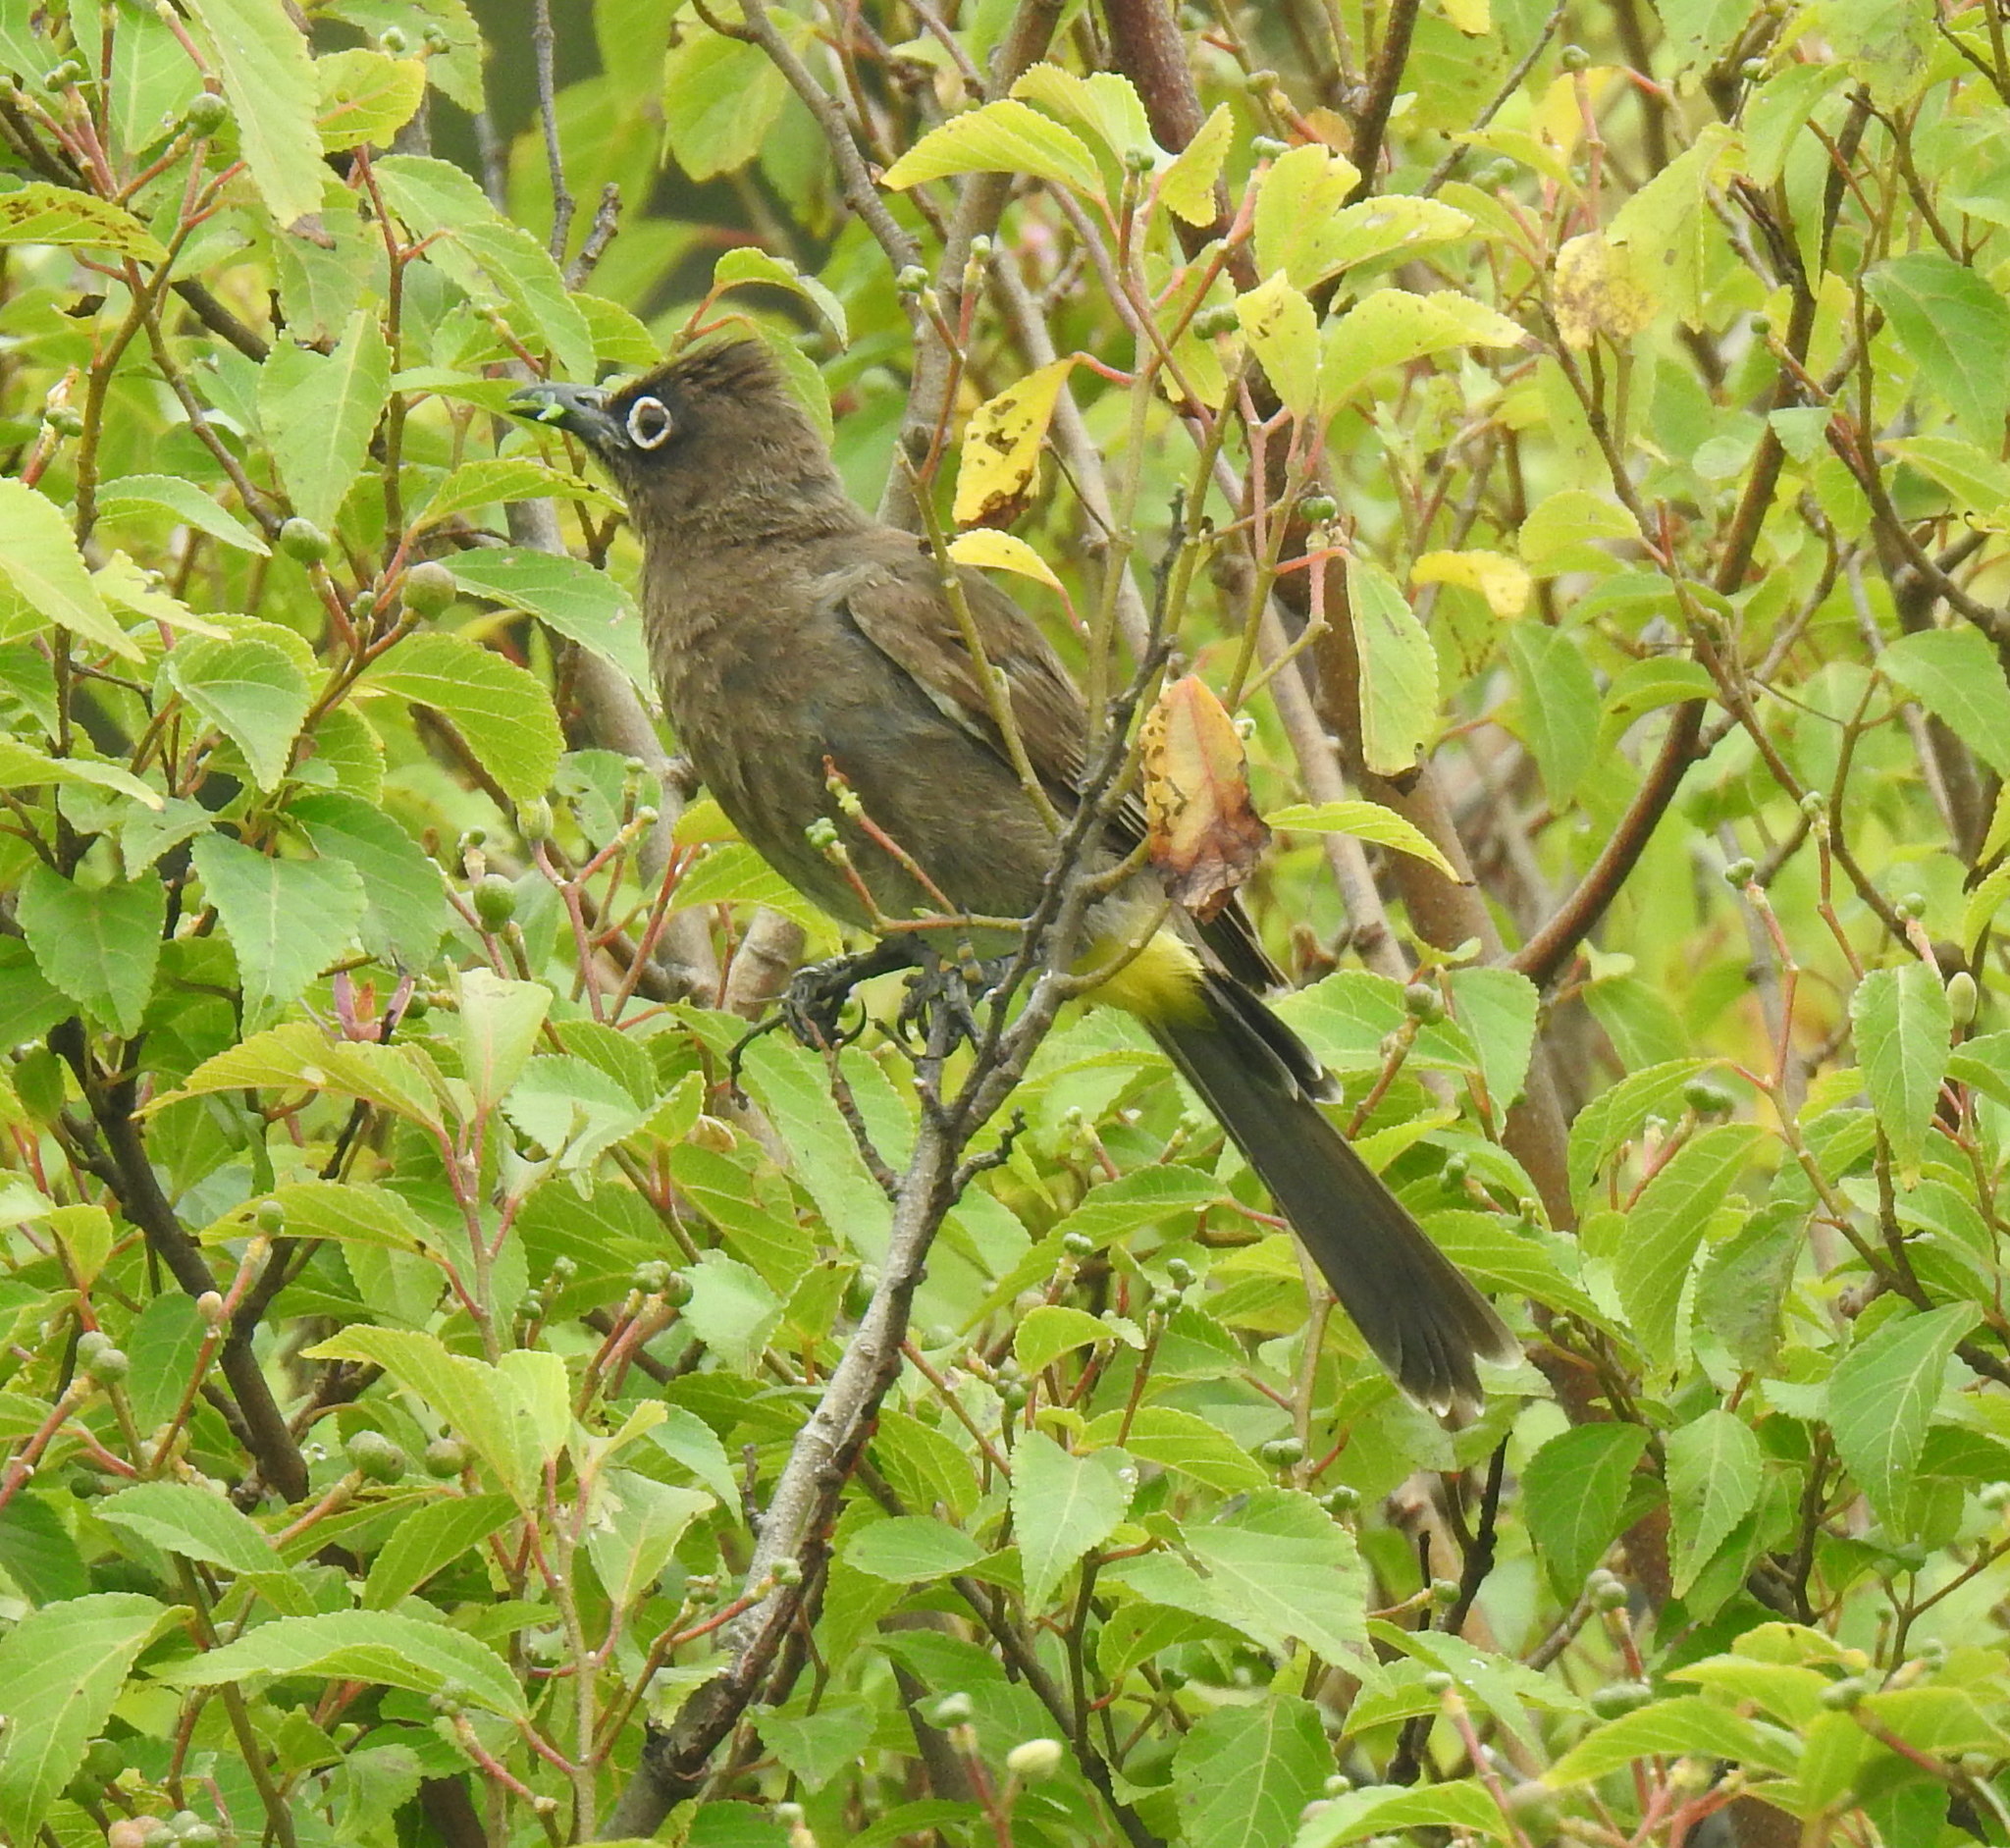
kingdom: Animalia
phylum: Chordata
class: Aves
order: Passeriformes
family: Pycnonotidae
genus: Pycnonotus
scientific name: Pycnonotus capensis
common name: Cape bulbul
